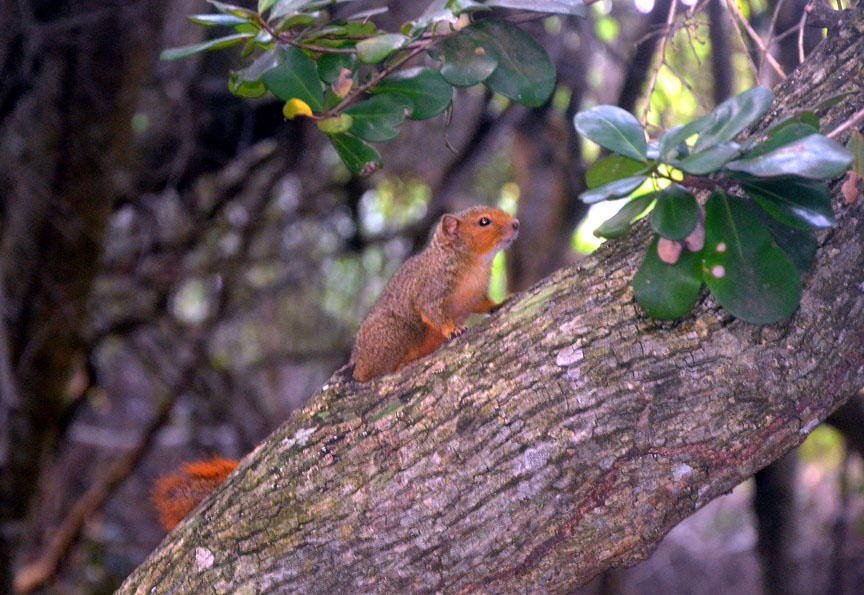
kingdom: Animalia
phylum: Chordata
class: Mammalia
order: Rodentia
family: Sciuridae
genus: Paraxerus
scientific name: Paraxerus palliatus
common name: Red bush squirrel
